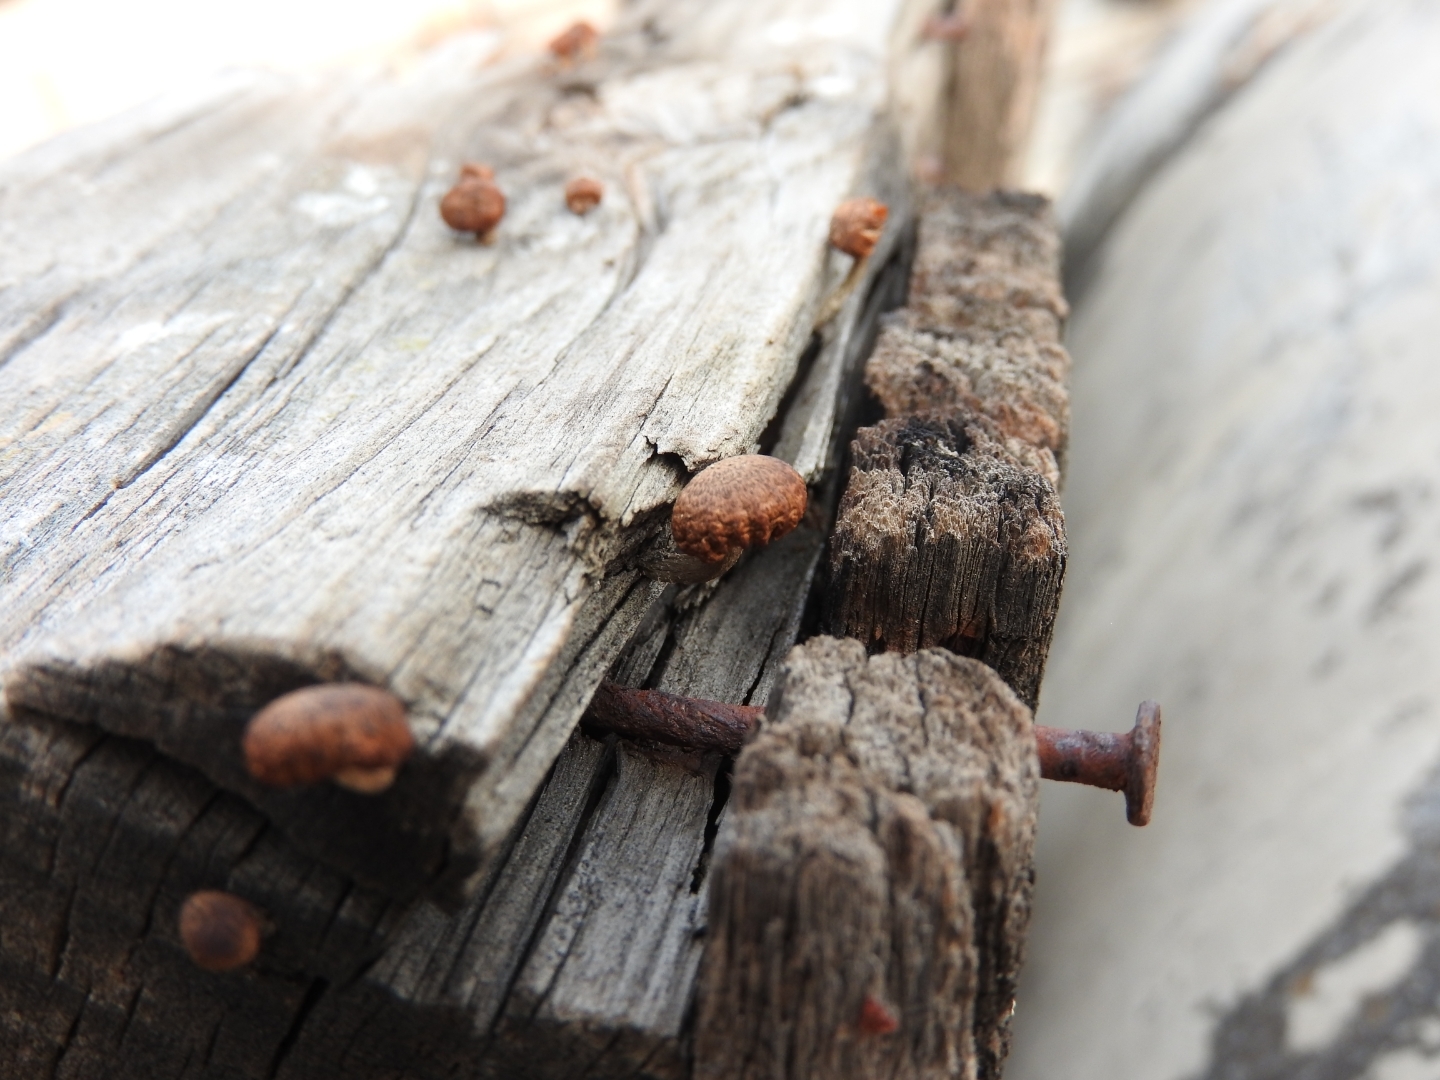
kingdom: Fungi
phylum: Basidiomycota
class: Agaricomycetes
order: Gloeophyllales
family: Gloeophyllaceae
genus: Heliocybe
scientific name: Heliocybe sulcata
